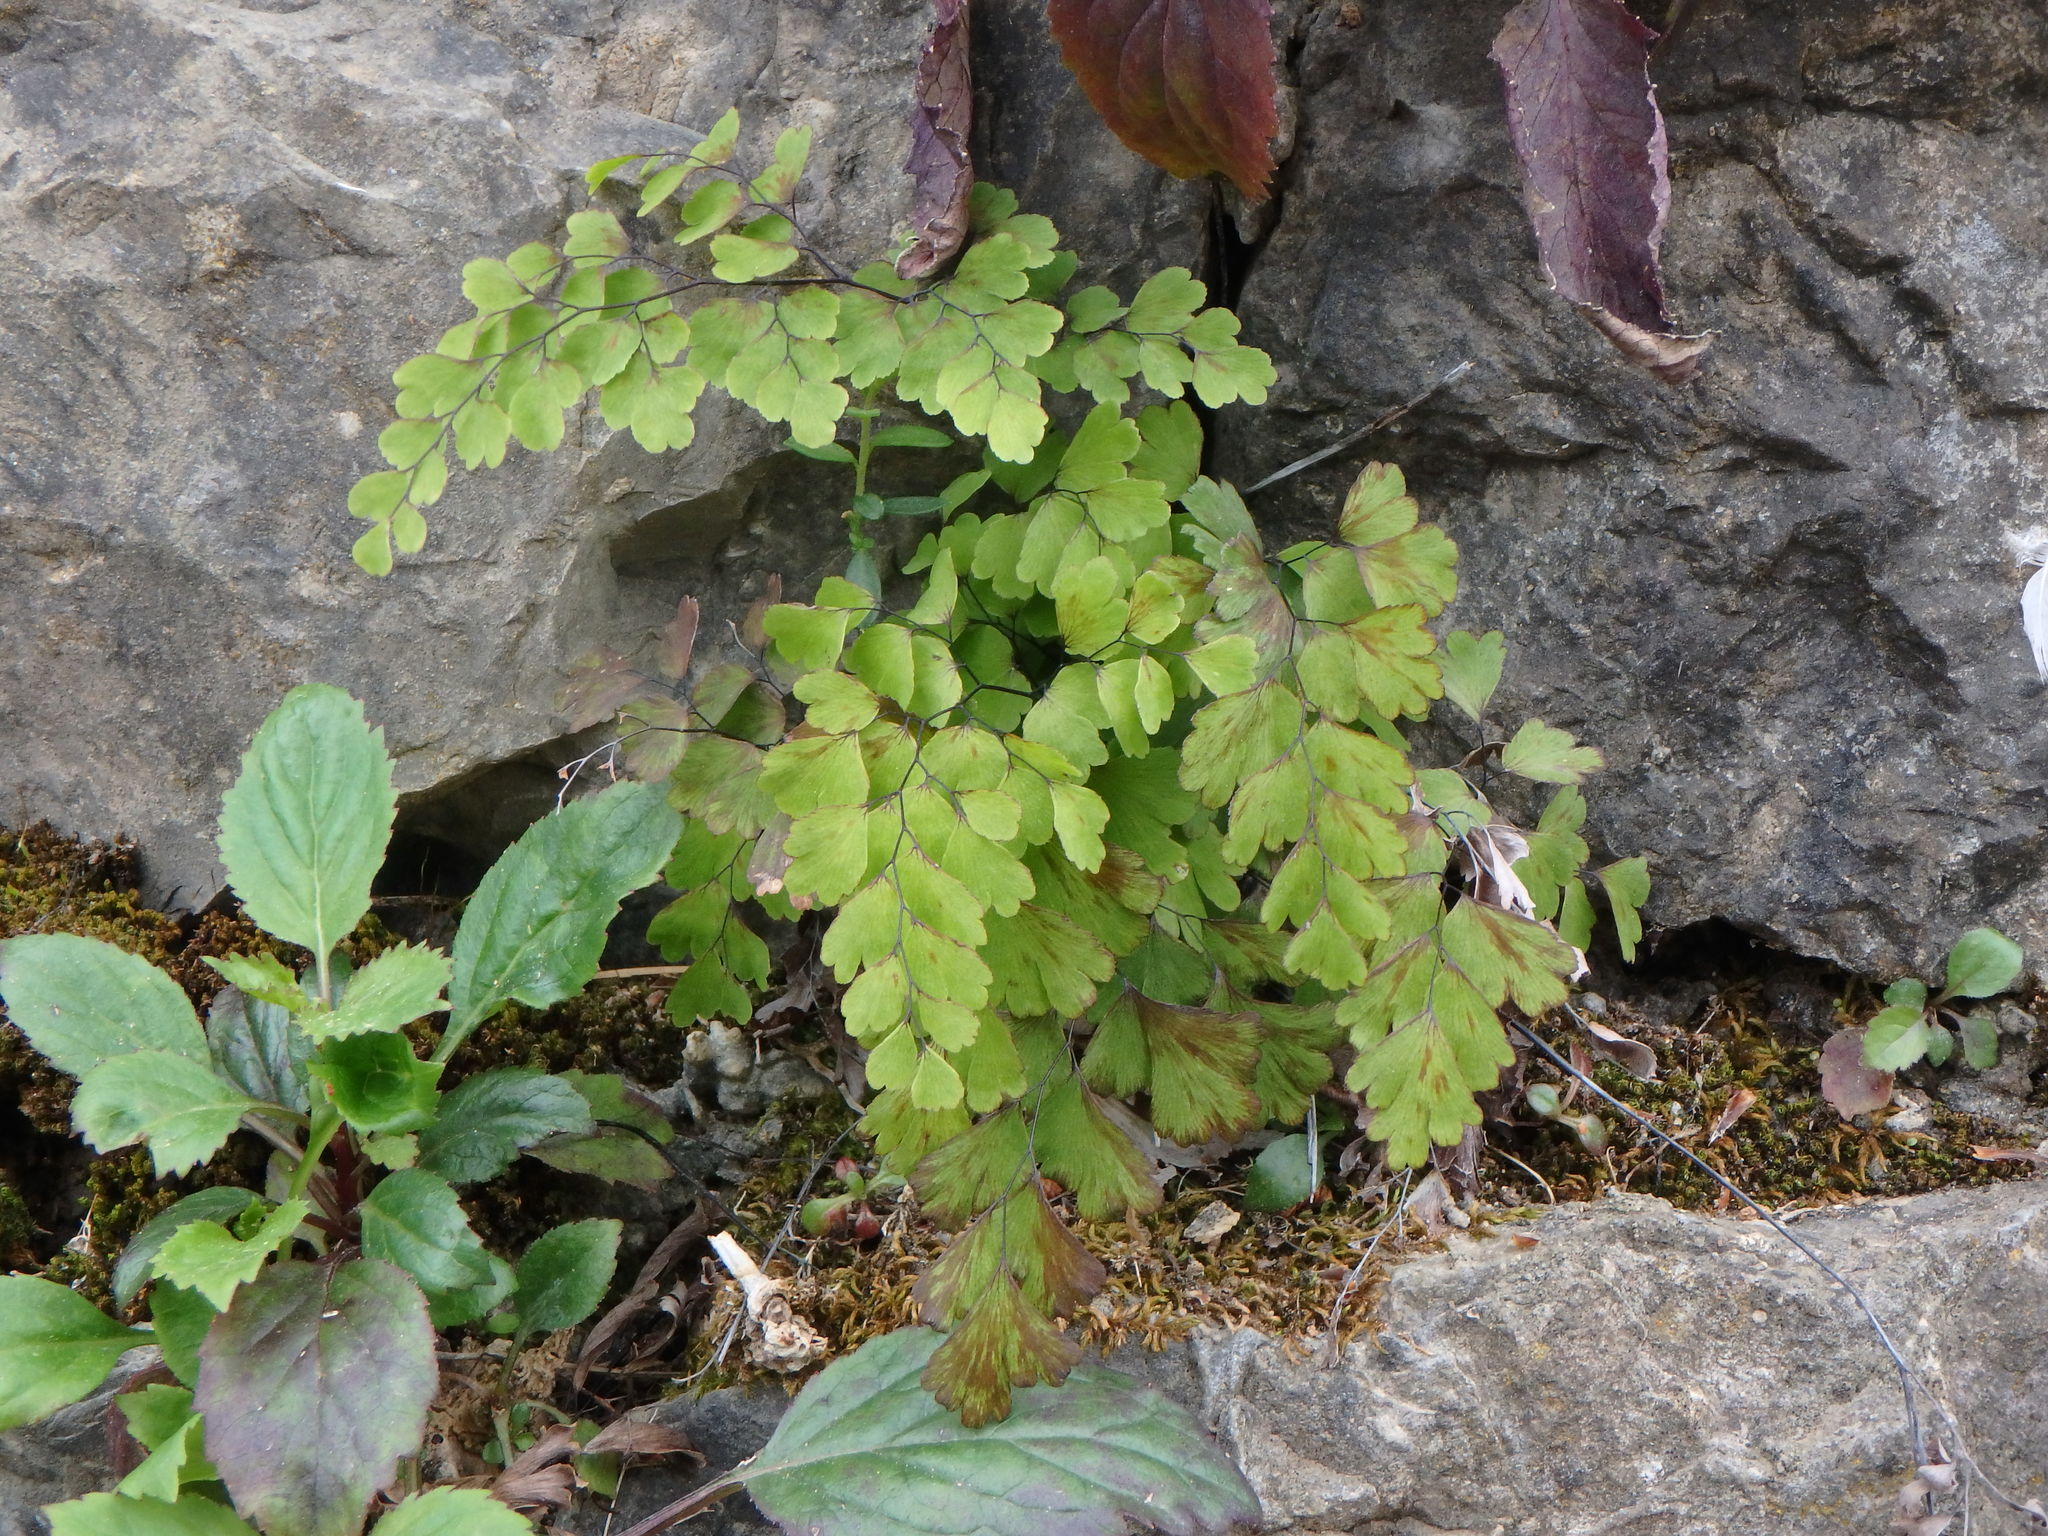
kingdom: Plantae
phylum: Tracheophyta
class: Polypodiopsida
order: Polypodiales
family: Pteridaceae
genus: Adiantum
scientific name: Adiantum capillus-veneris
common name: Maidenhair fern
